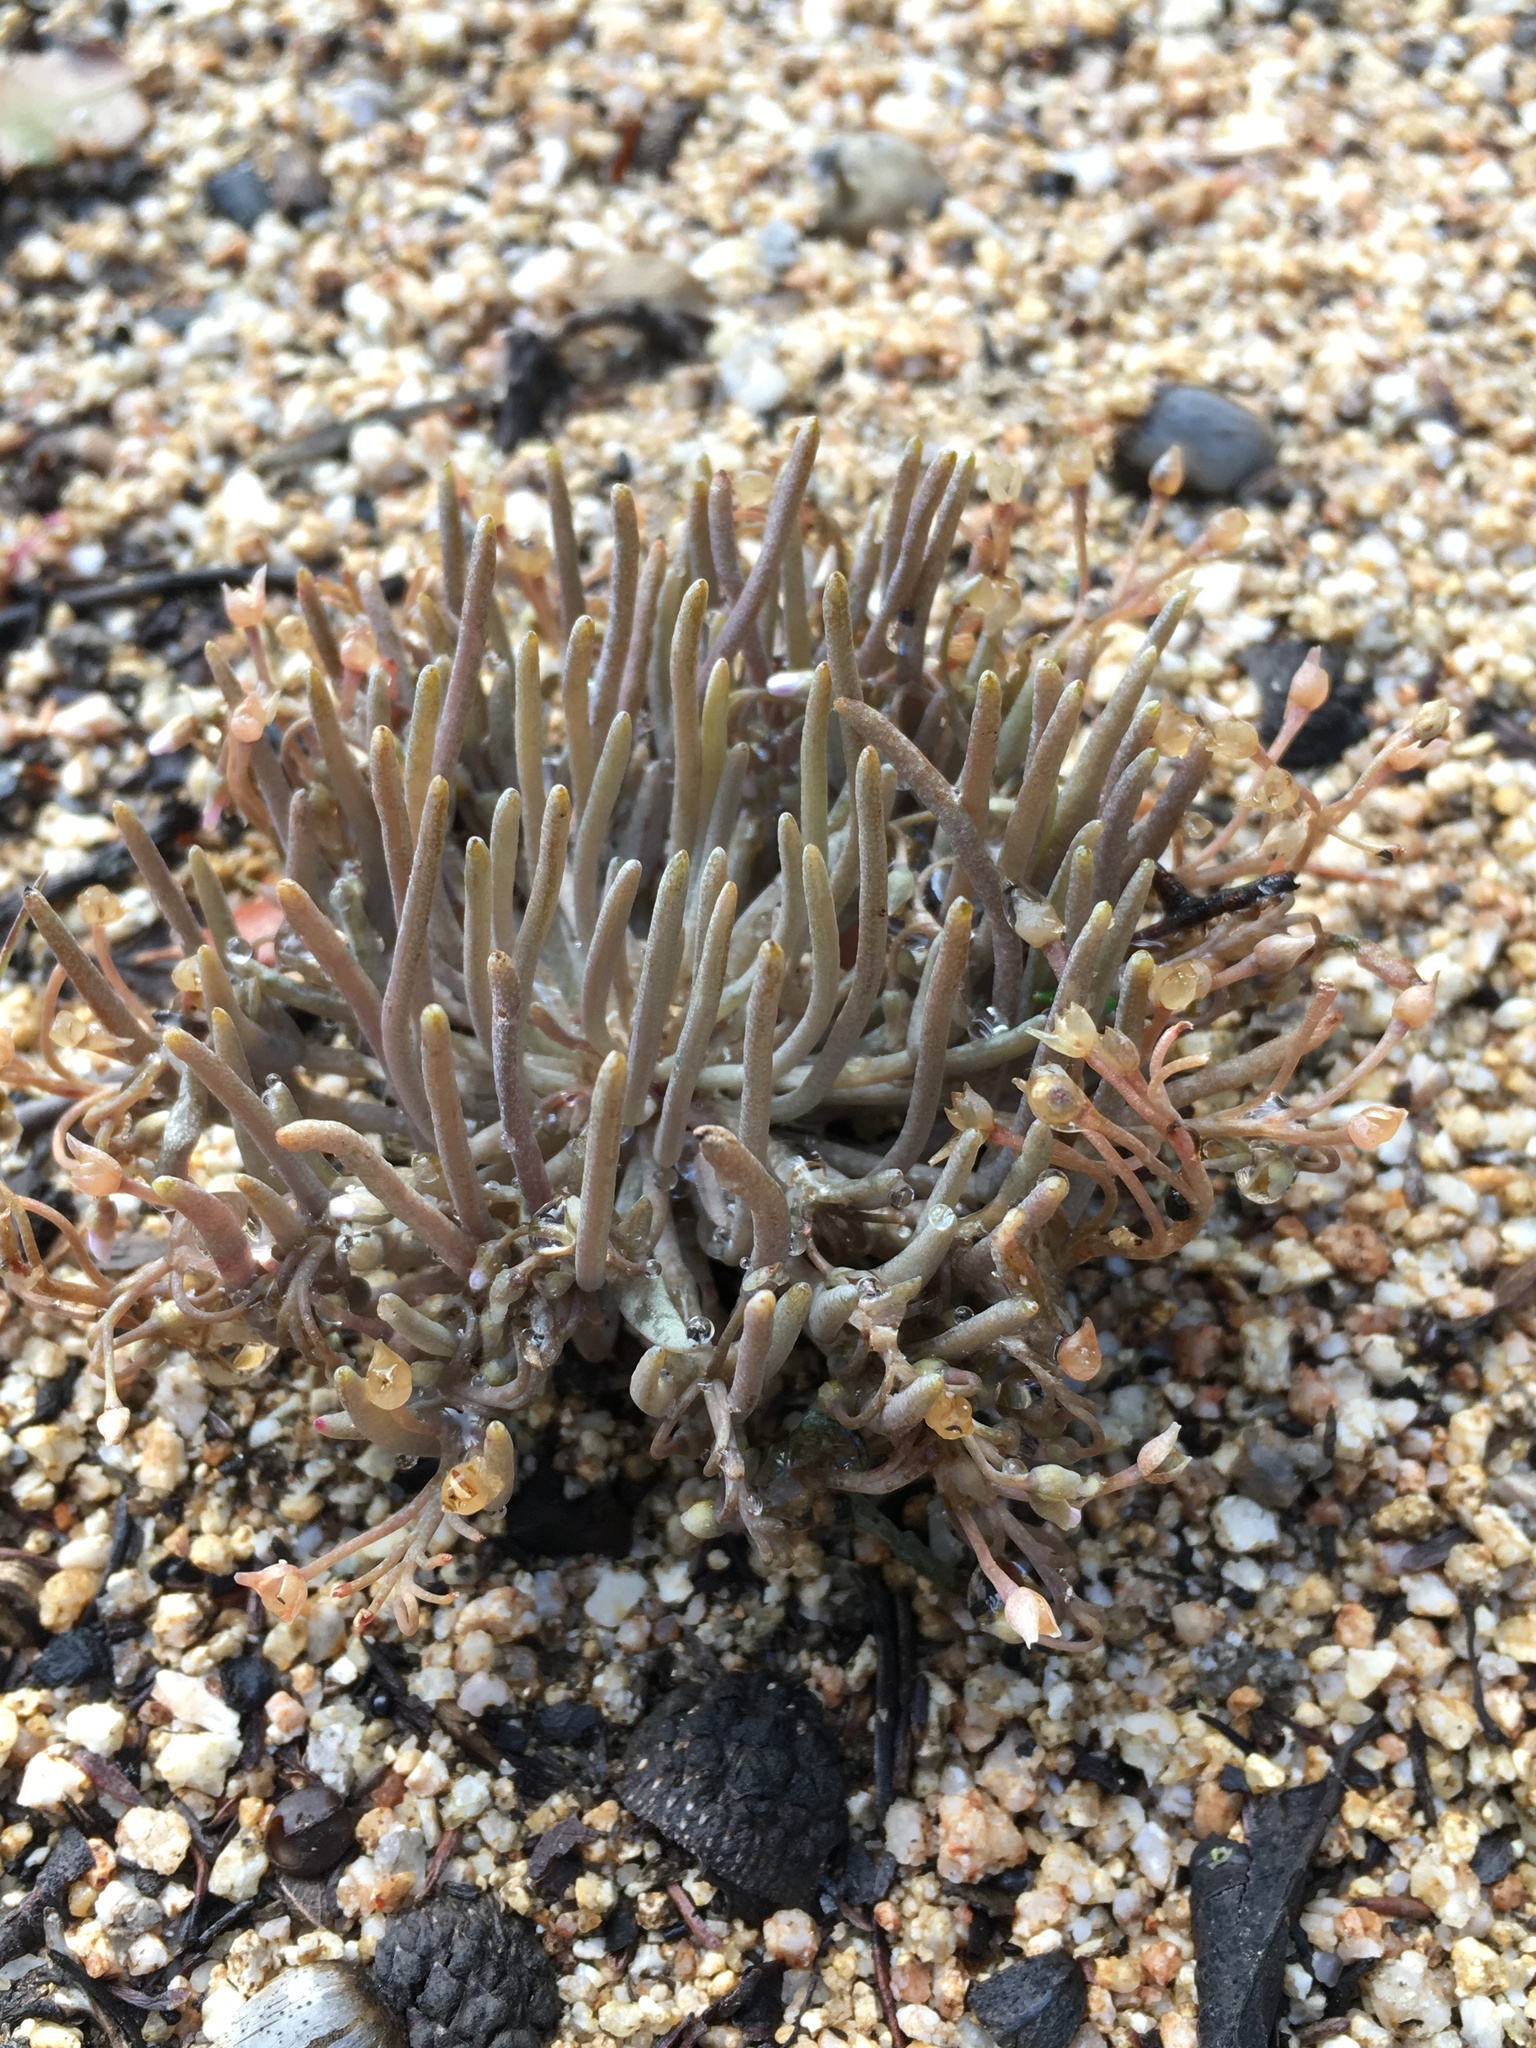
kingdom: Plantae
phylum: Tracheophyta
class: Magnoliopsida
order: Caryophyllales
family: Montiaceae
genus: Claytonia
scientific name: Claytonia exigua
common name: Pale spring beauty
